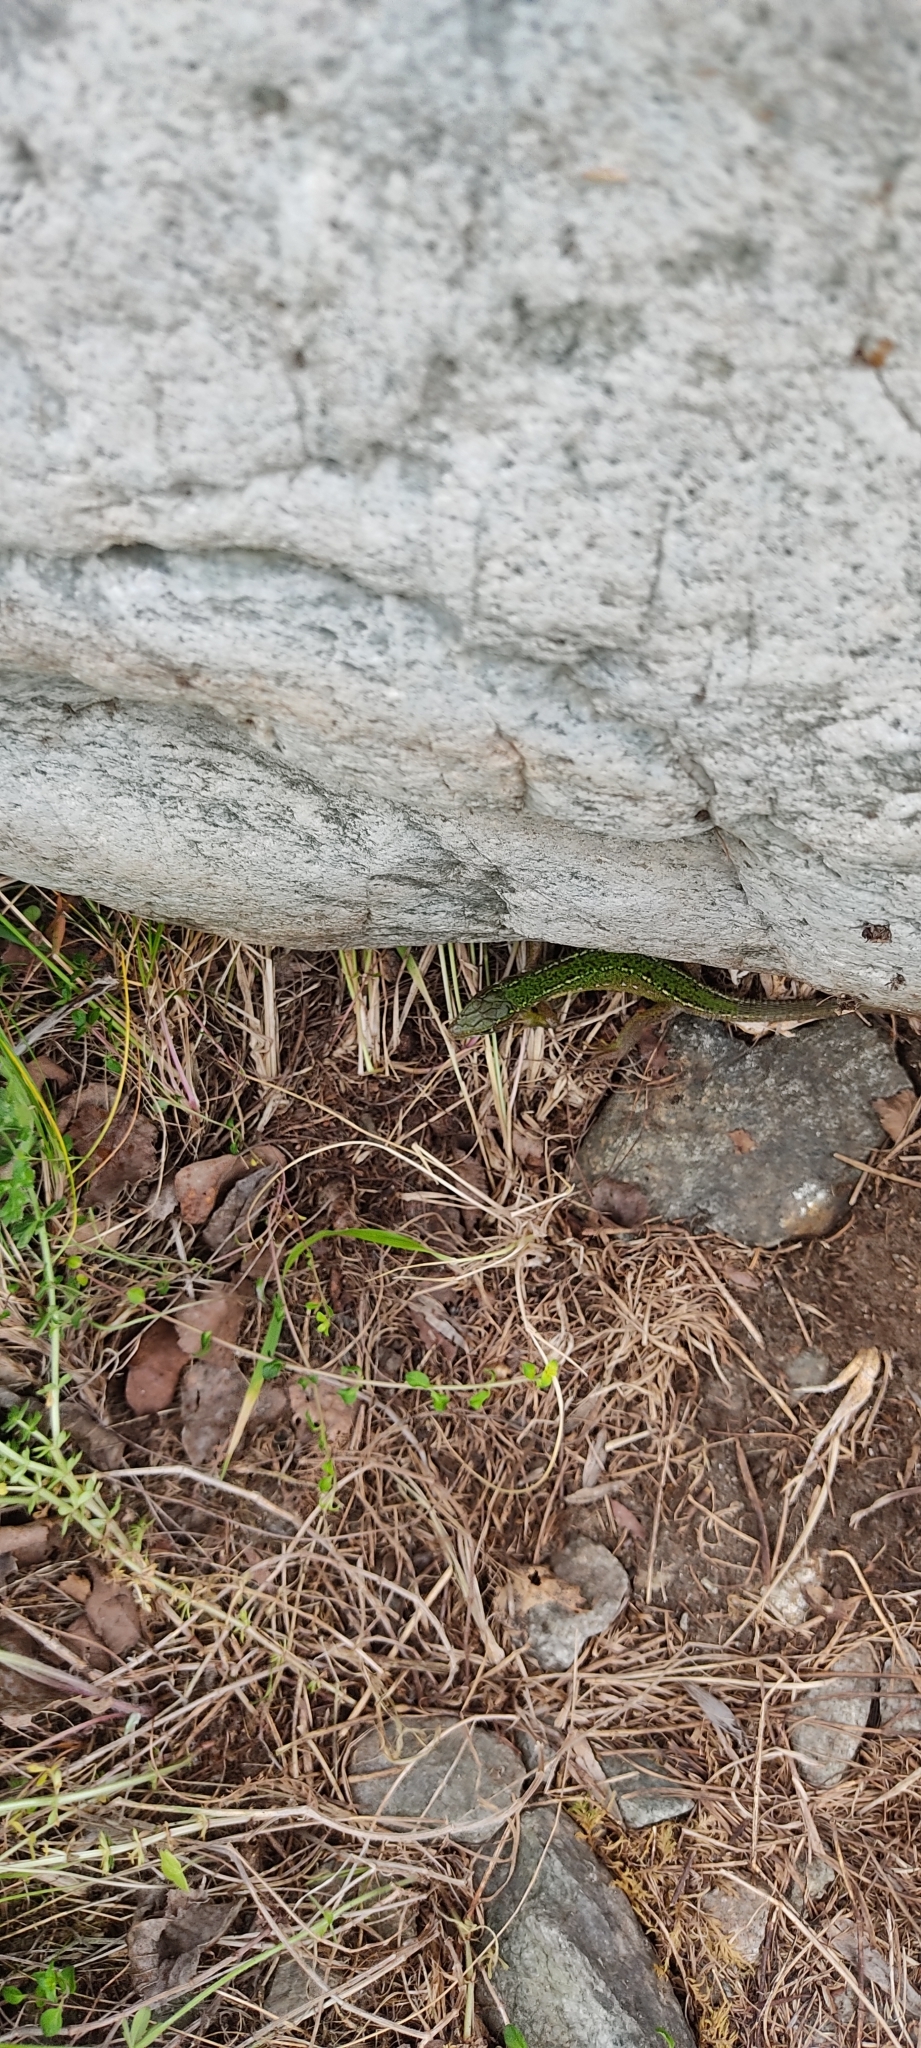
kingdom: Animalia
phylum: Chordata
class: Squamata
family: Lacertidae
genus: Lacerta
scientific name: Lacerta bilineata
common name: Western green lizard
